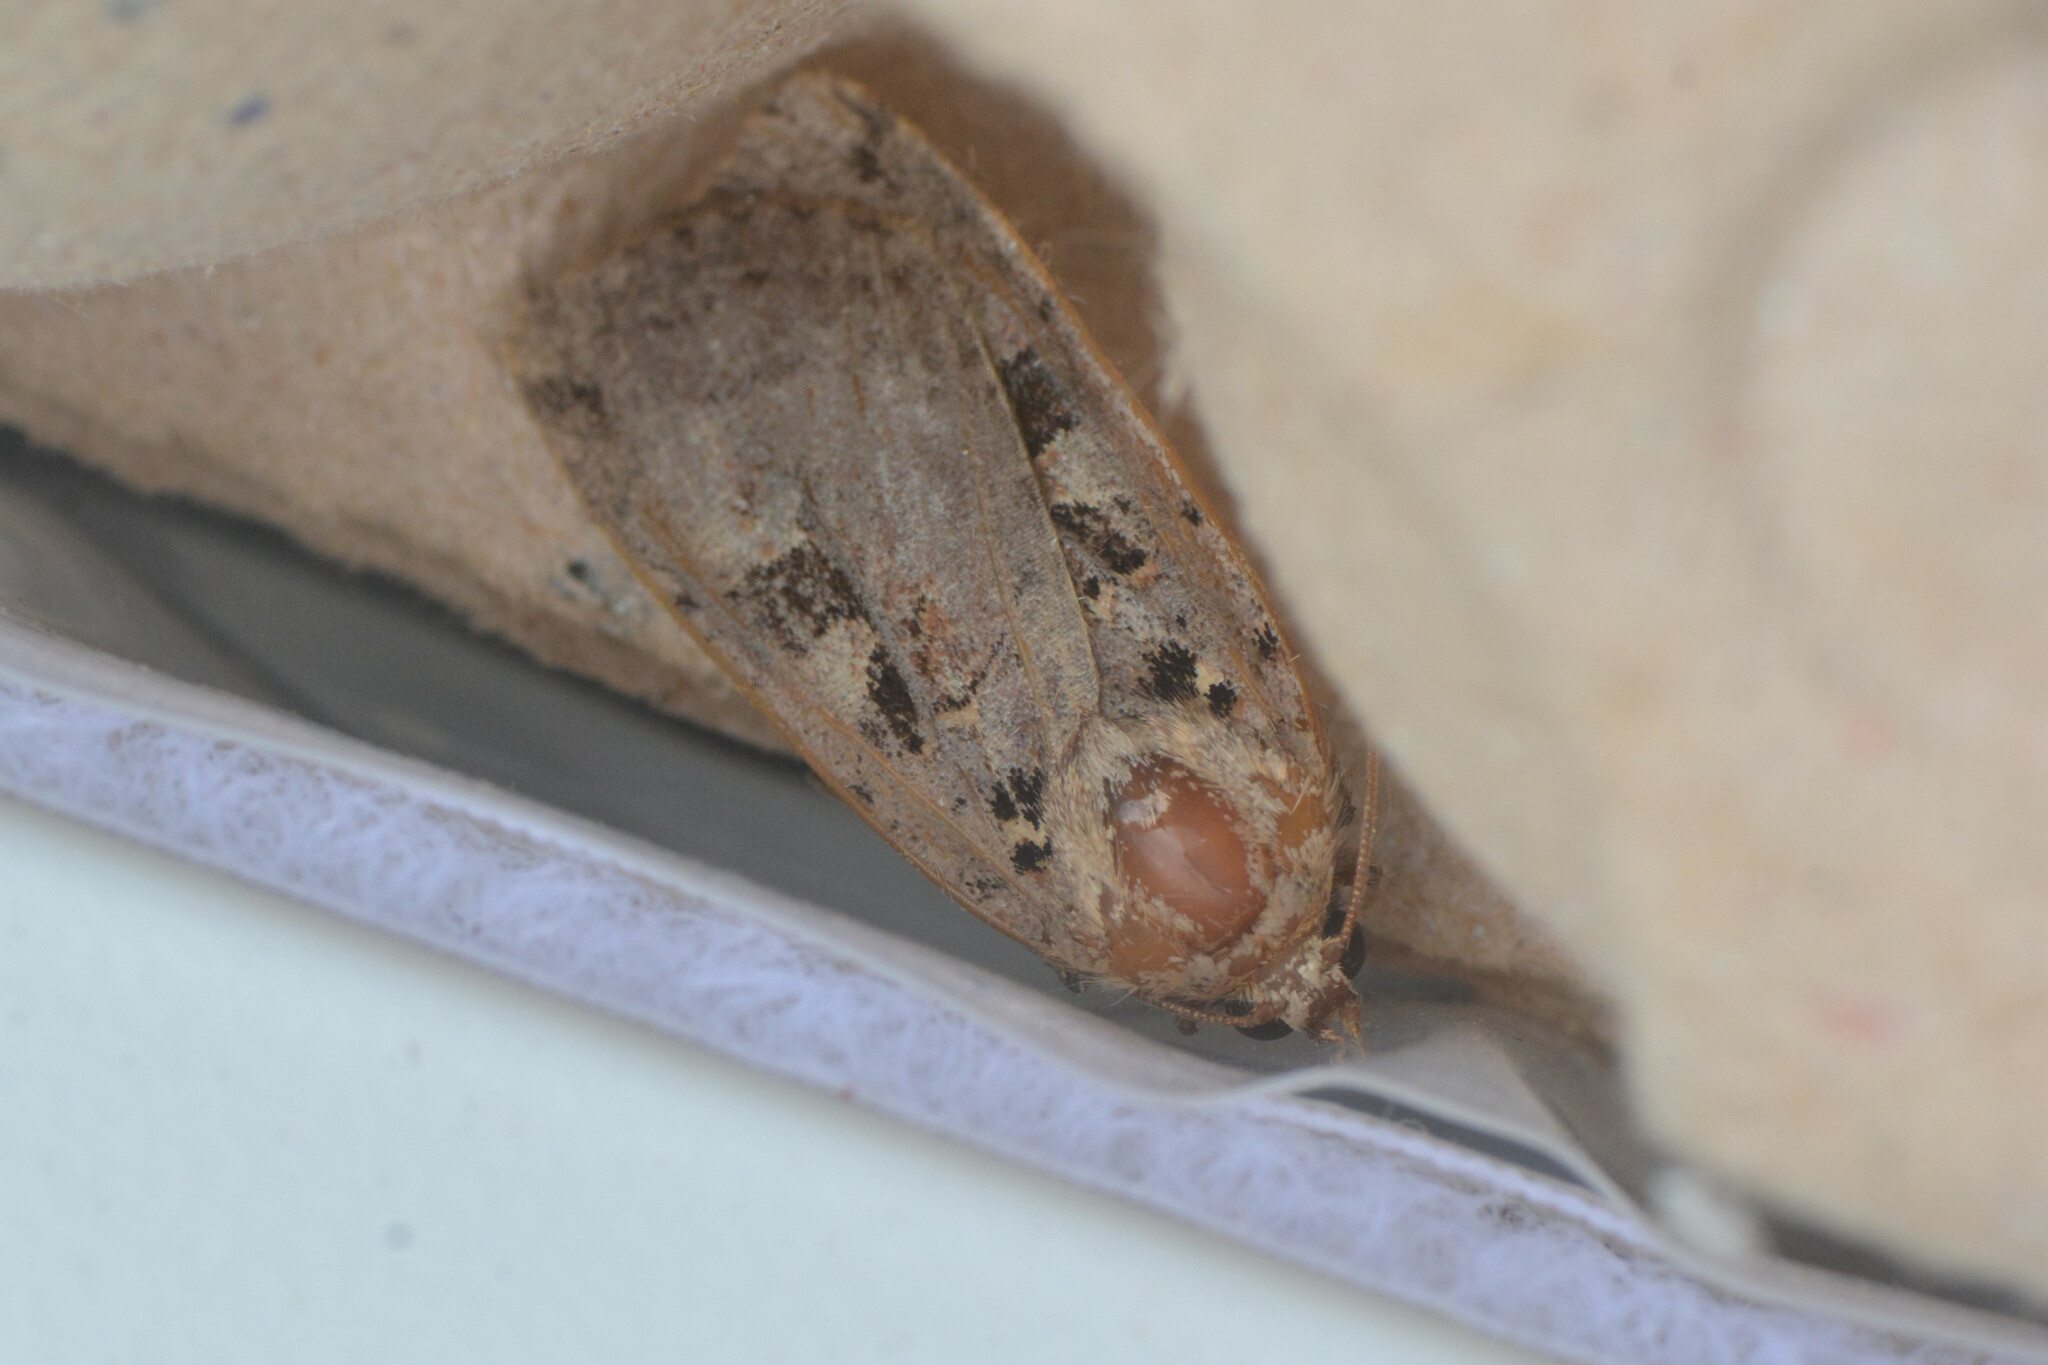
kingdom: Animalia
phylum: Arthropoda
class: Insecta
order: Lepidoptera
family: Noctuidae
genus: Xestia
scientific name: Xestia triangulum
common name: Double square-spot
